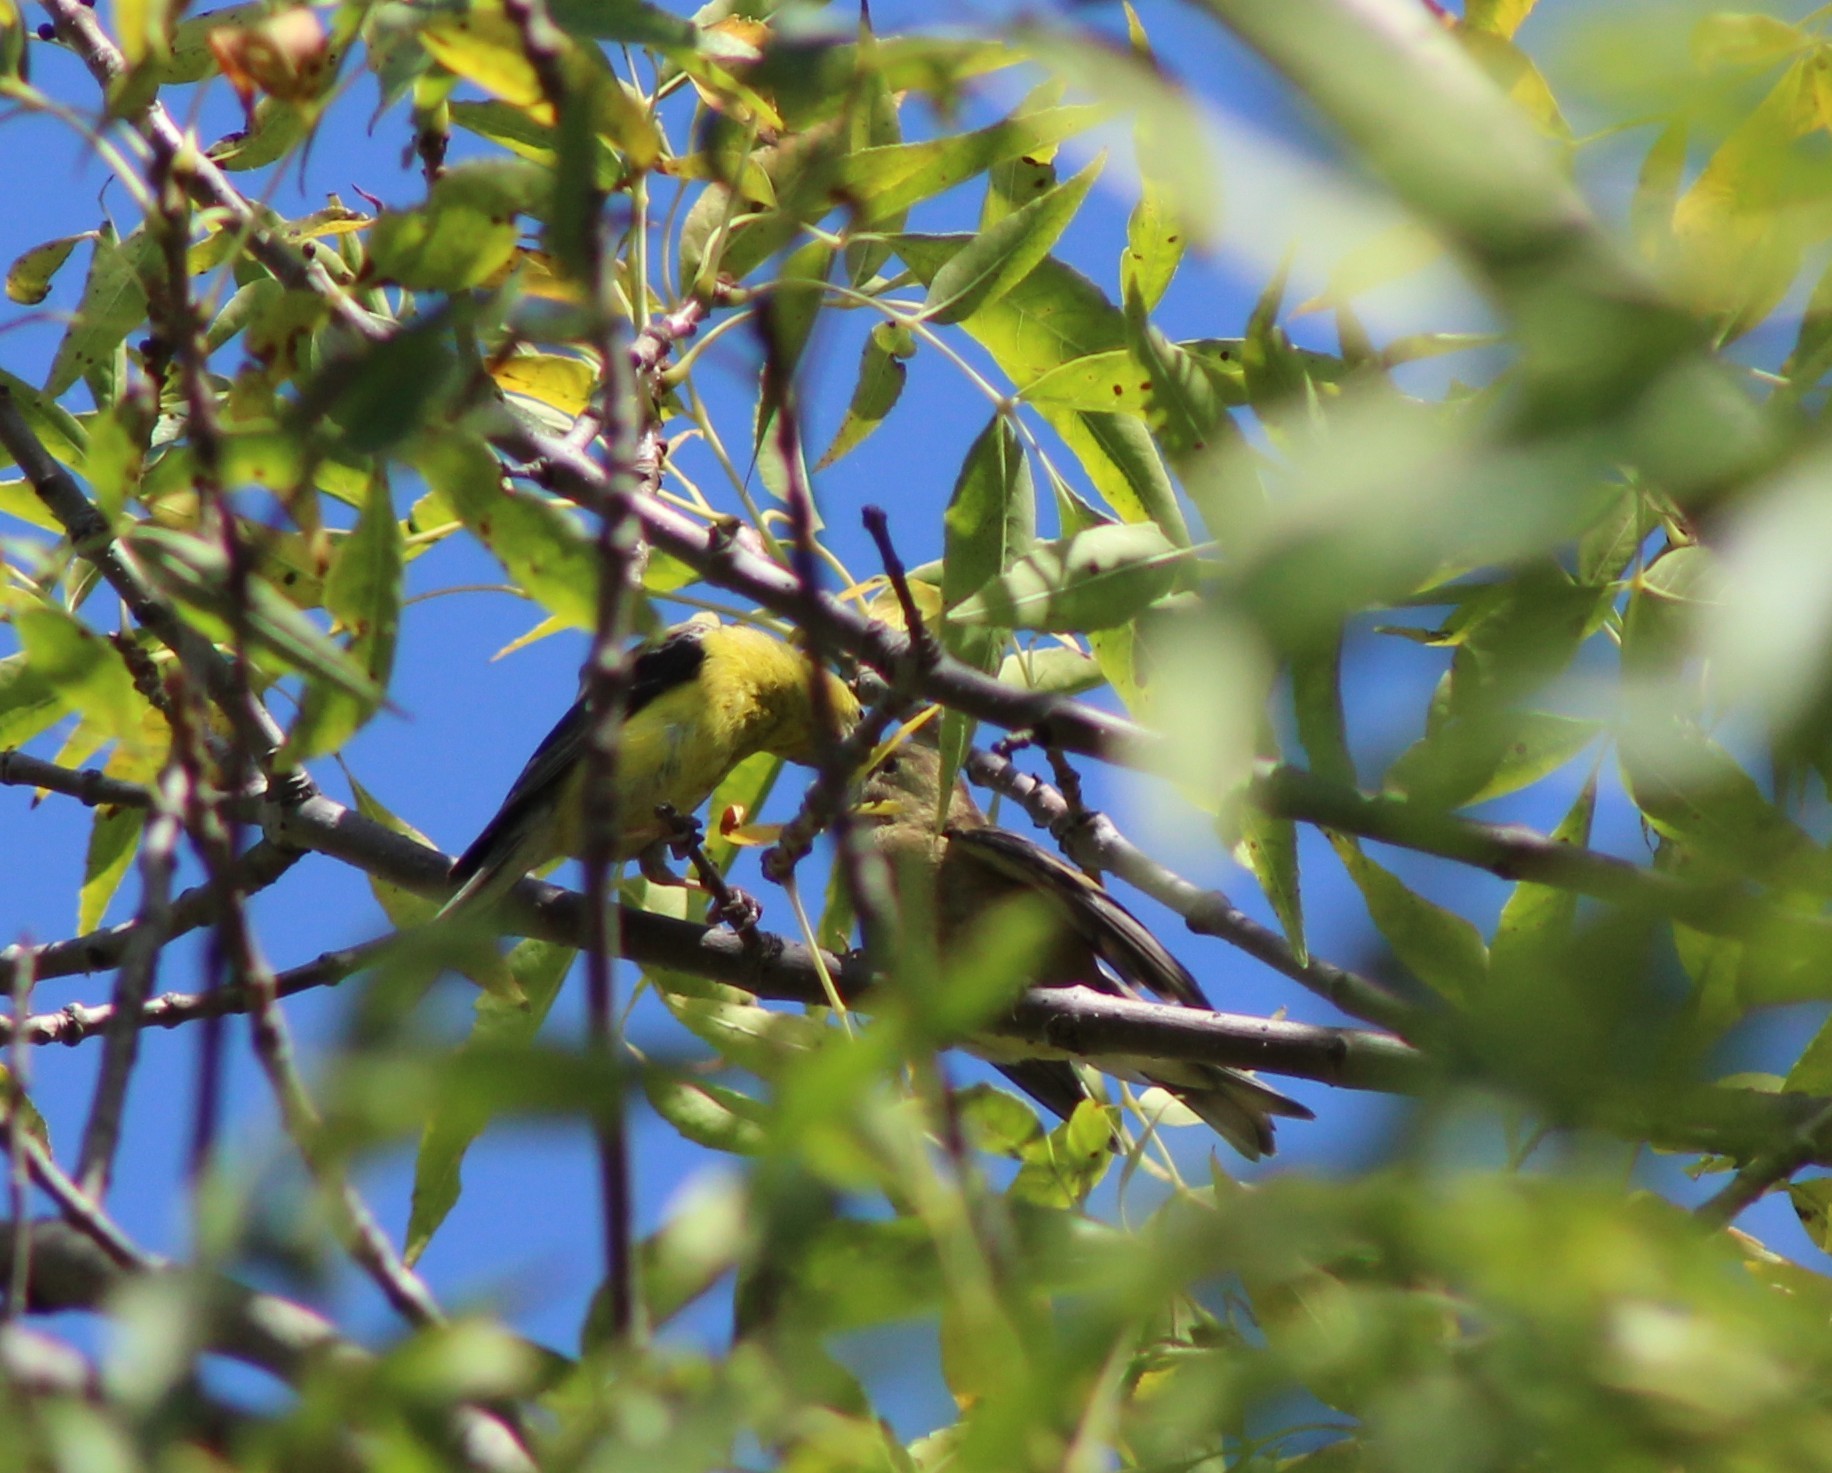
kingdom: Animalia
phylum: Chordata
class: Aves
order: Passeriformes
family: Fringillidae
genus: Spinus
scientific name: Spinus tristis
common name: American goldfinch
